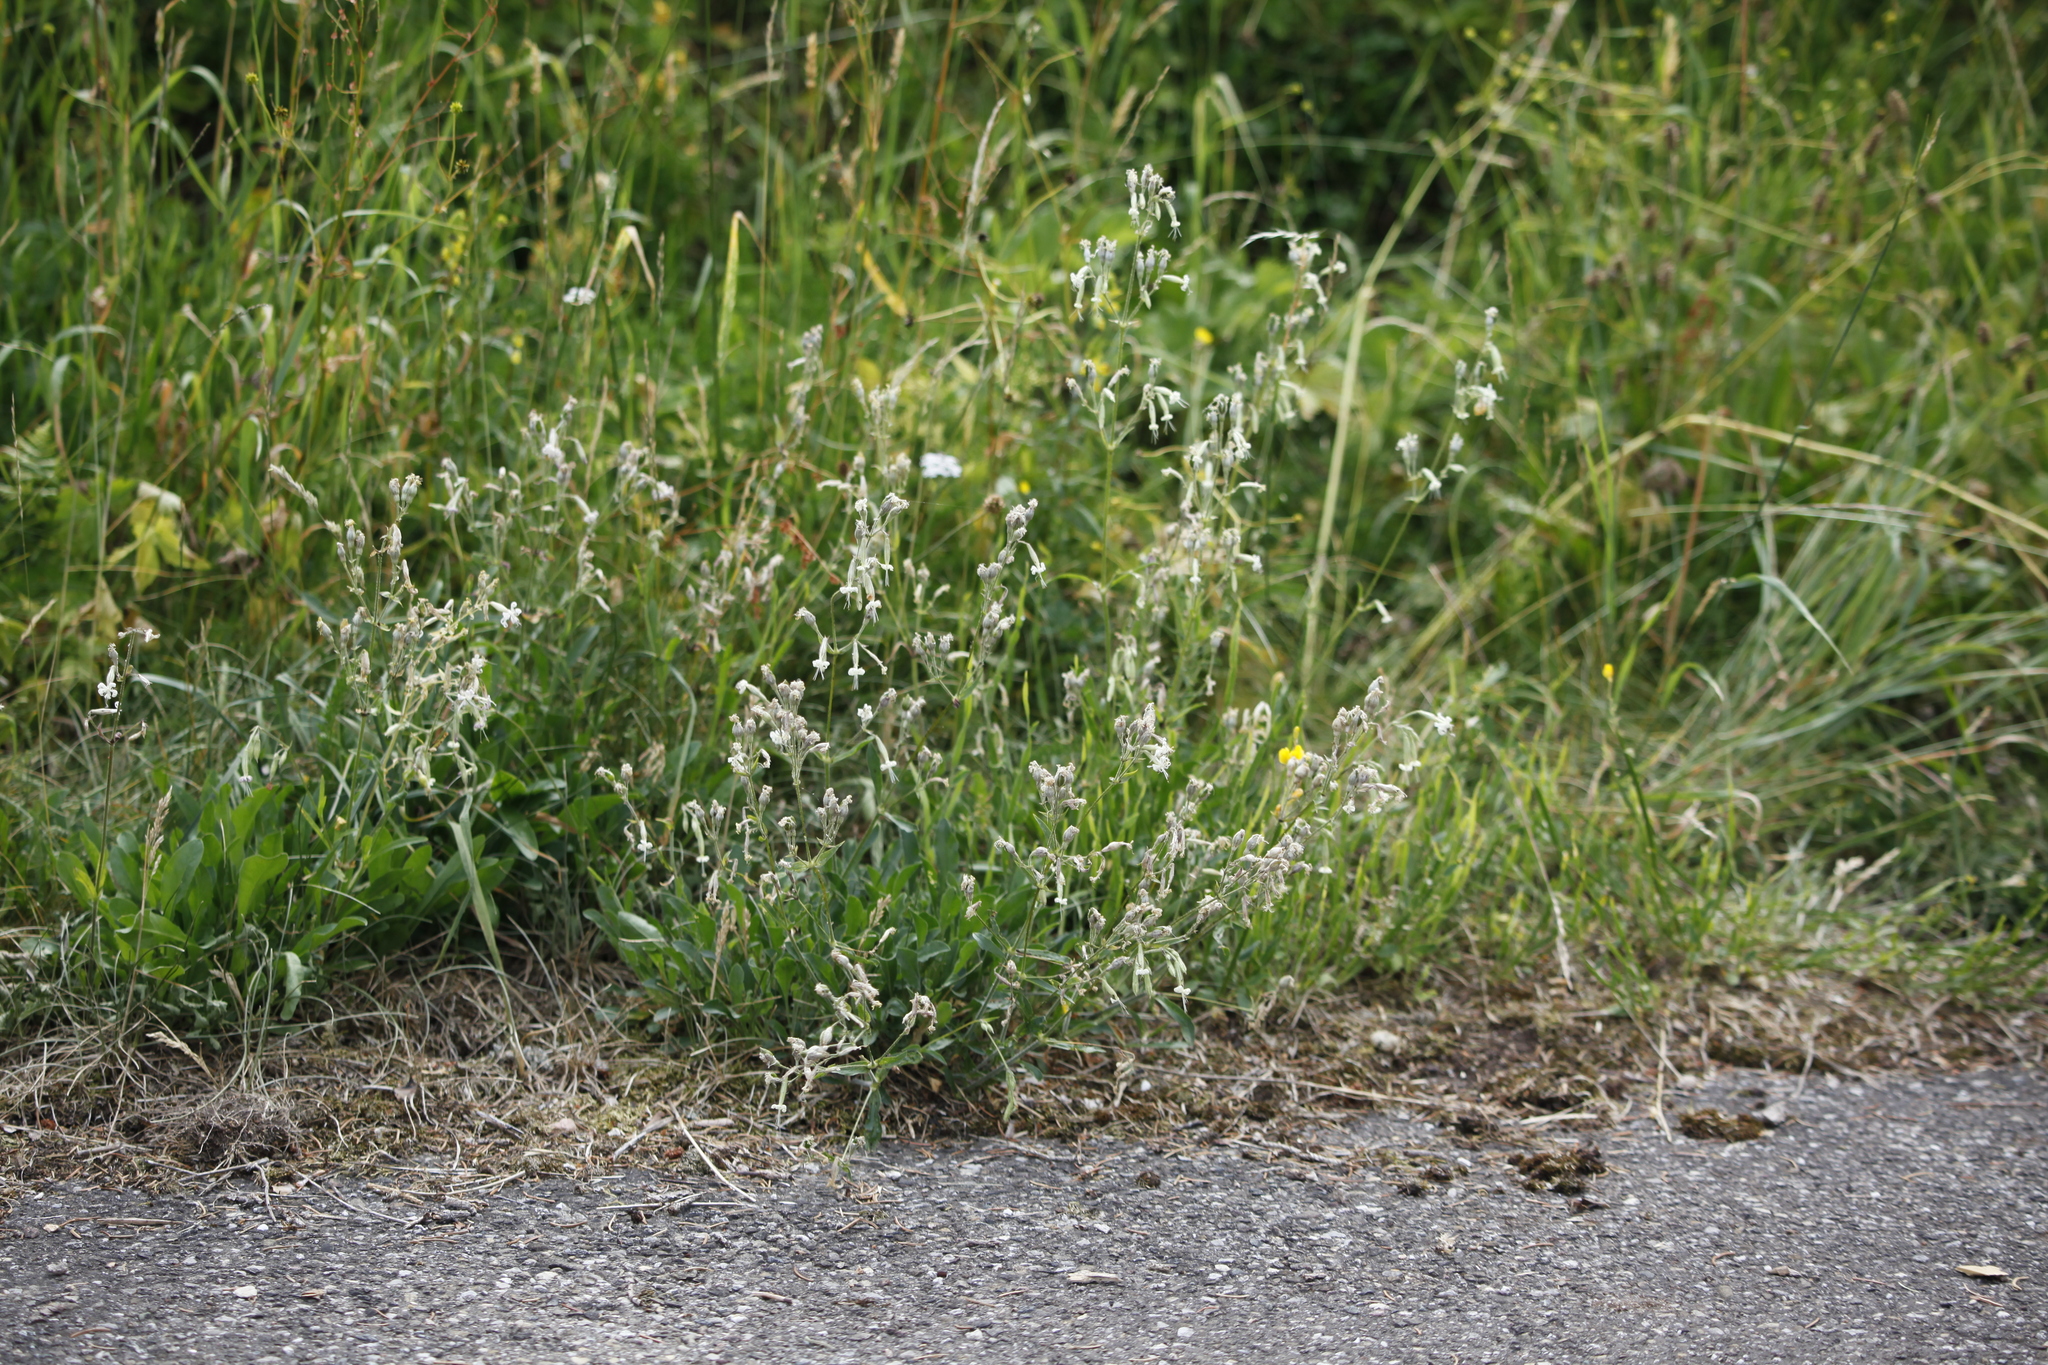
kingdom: Plantae
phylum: Tracheophyta
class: Magnoliopsida
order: Caryophyllales
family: Caryophyllaceae
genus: Silene
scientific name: Silene nutans
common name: Nottingham catchfly
